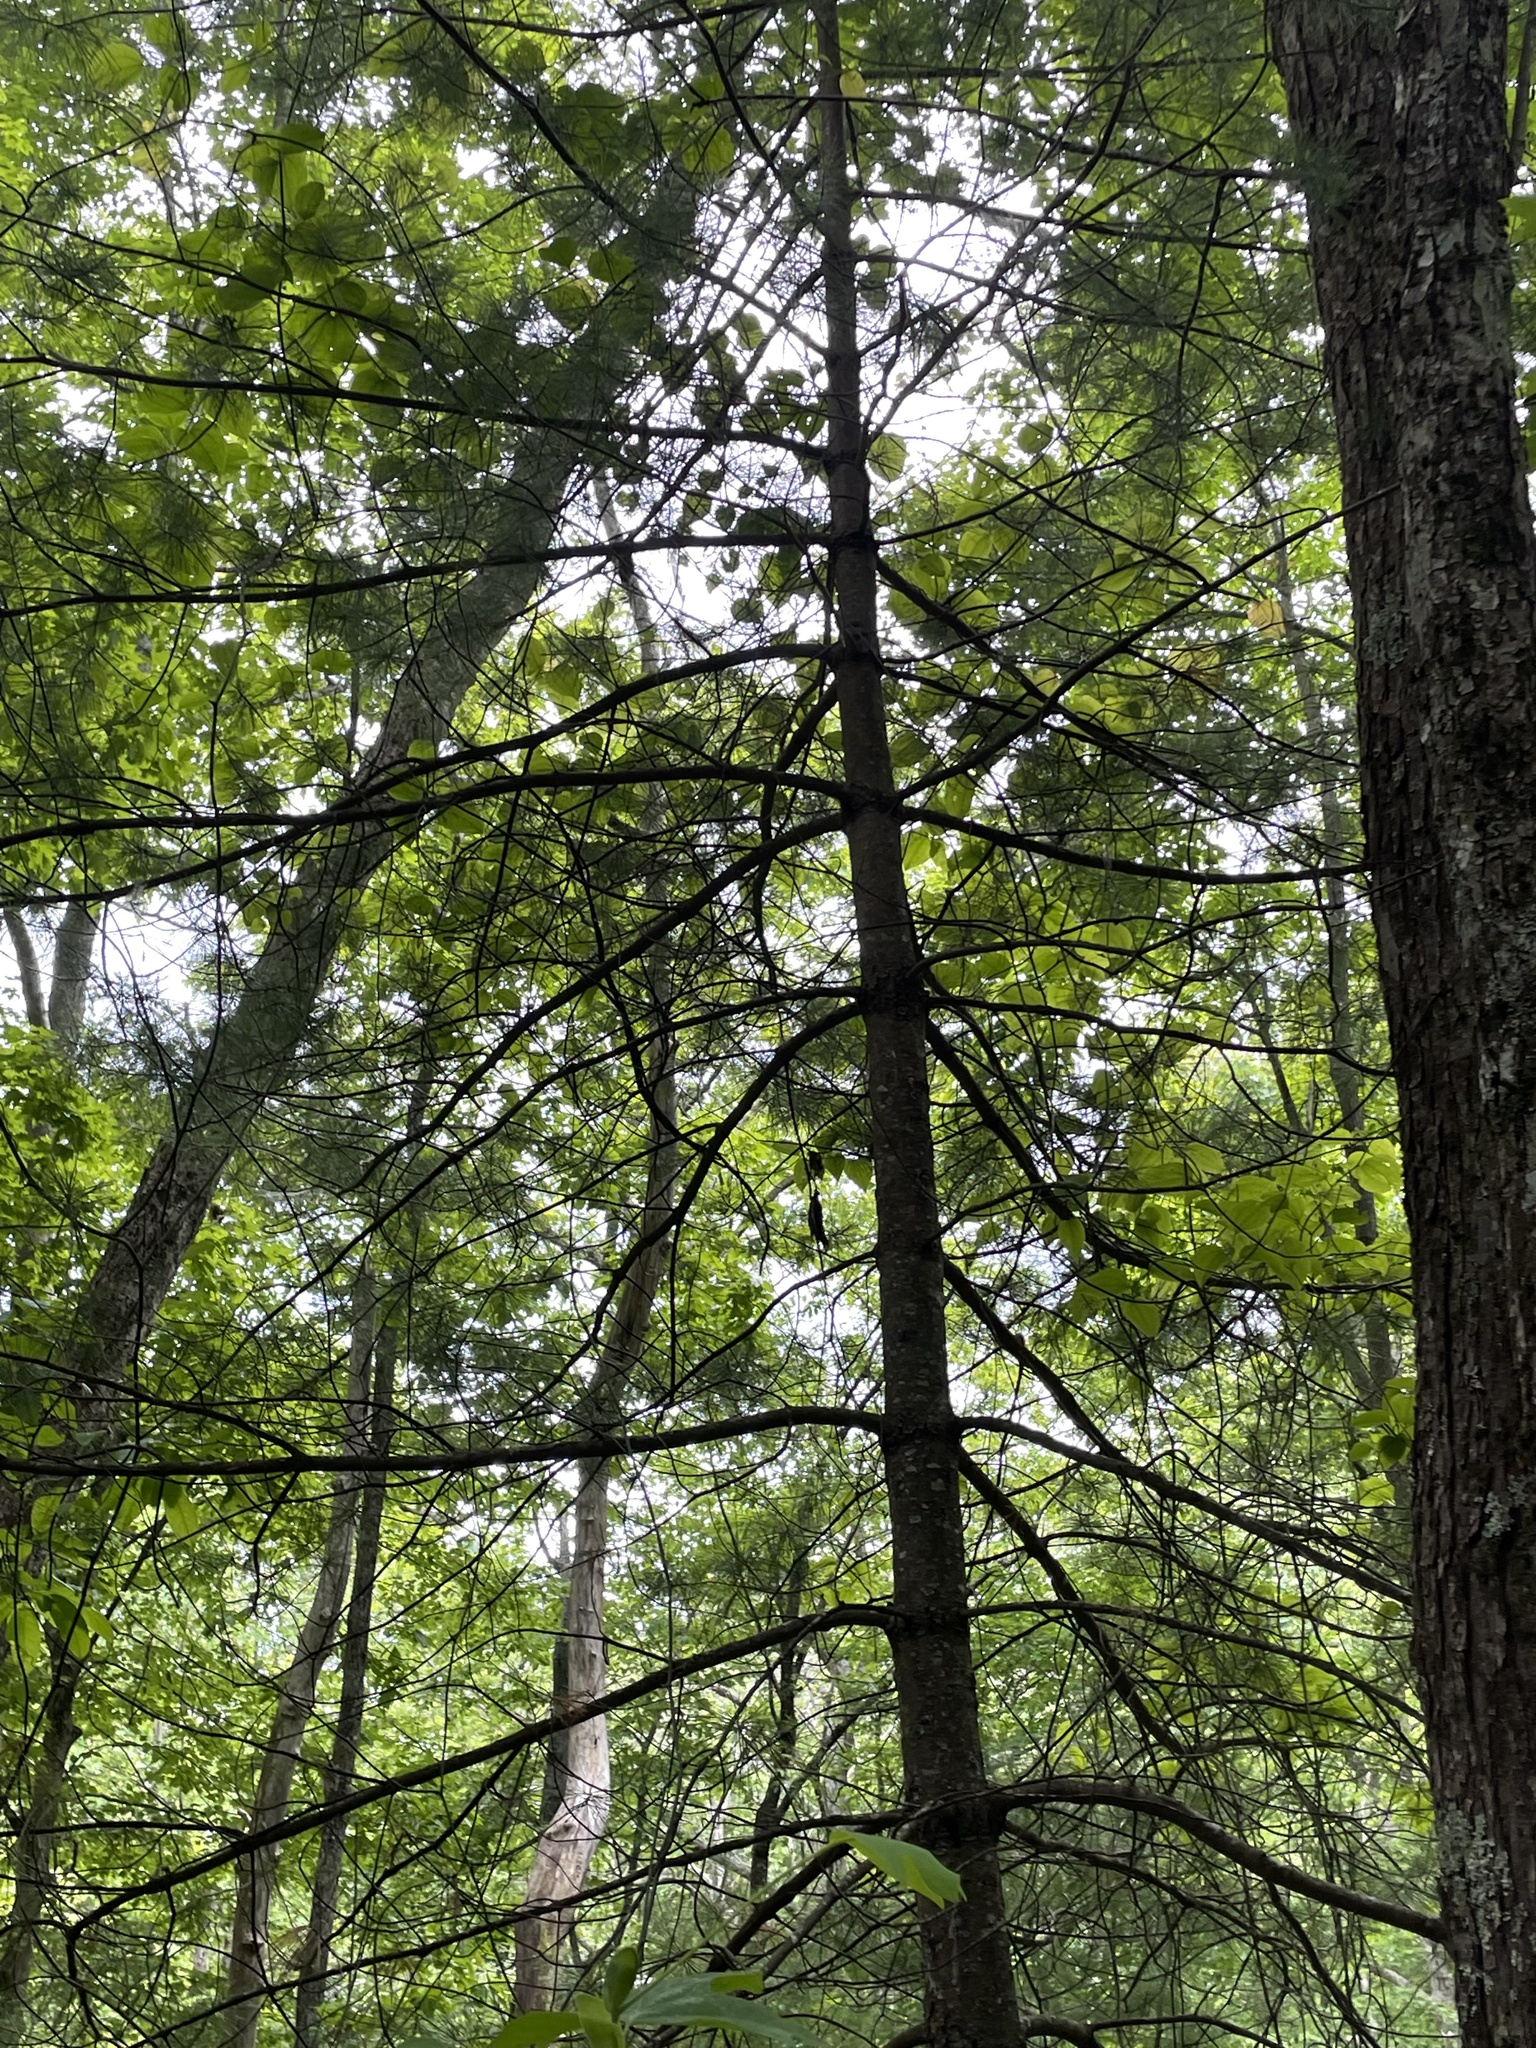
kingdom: Plantae
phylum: Tracheophyta
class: Pinopsida
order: Pinales
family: Pinaceae
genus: Pinus
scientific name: Pinus strobus
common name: Weymouth pine
